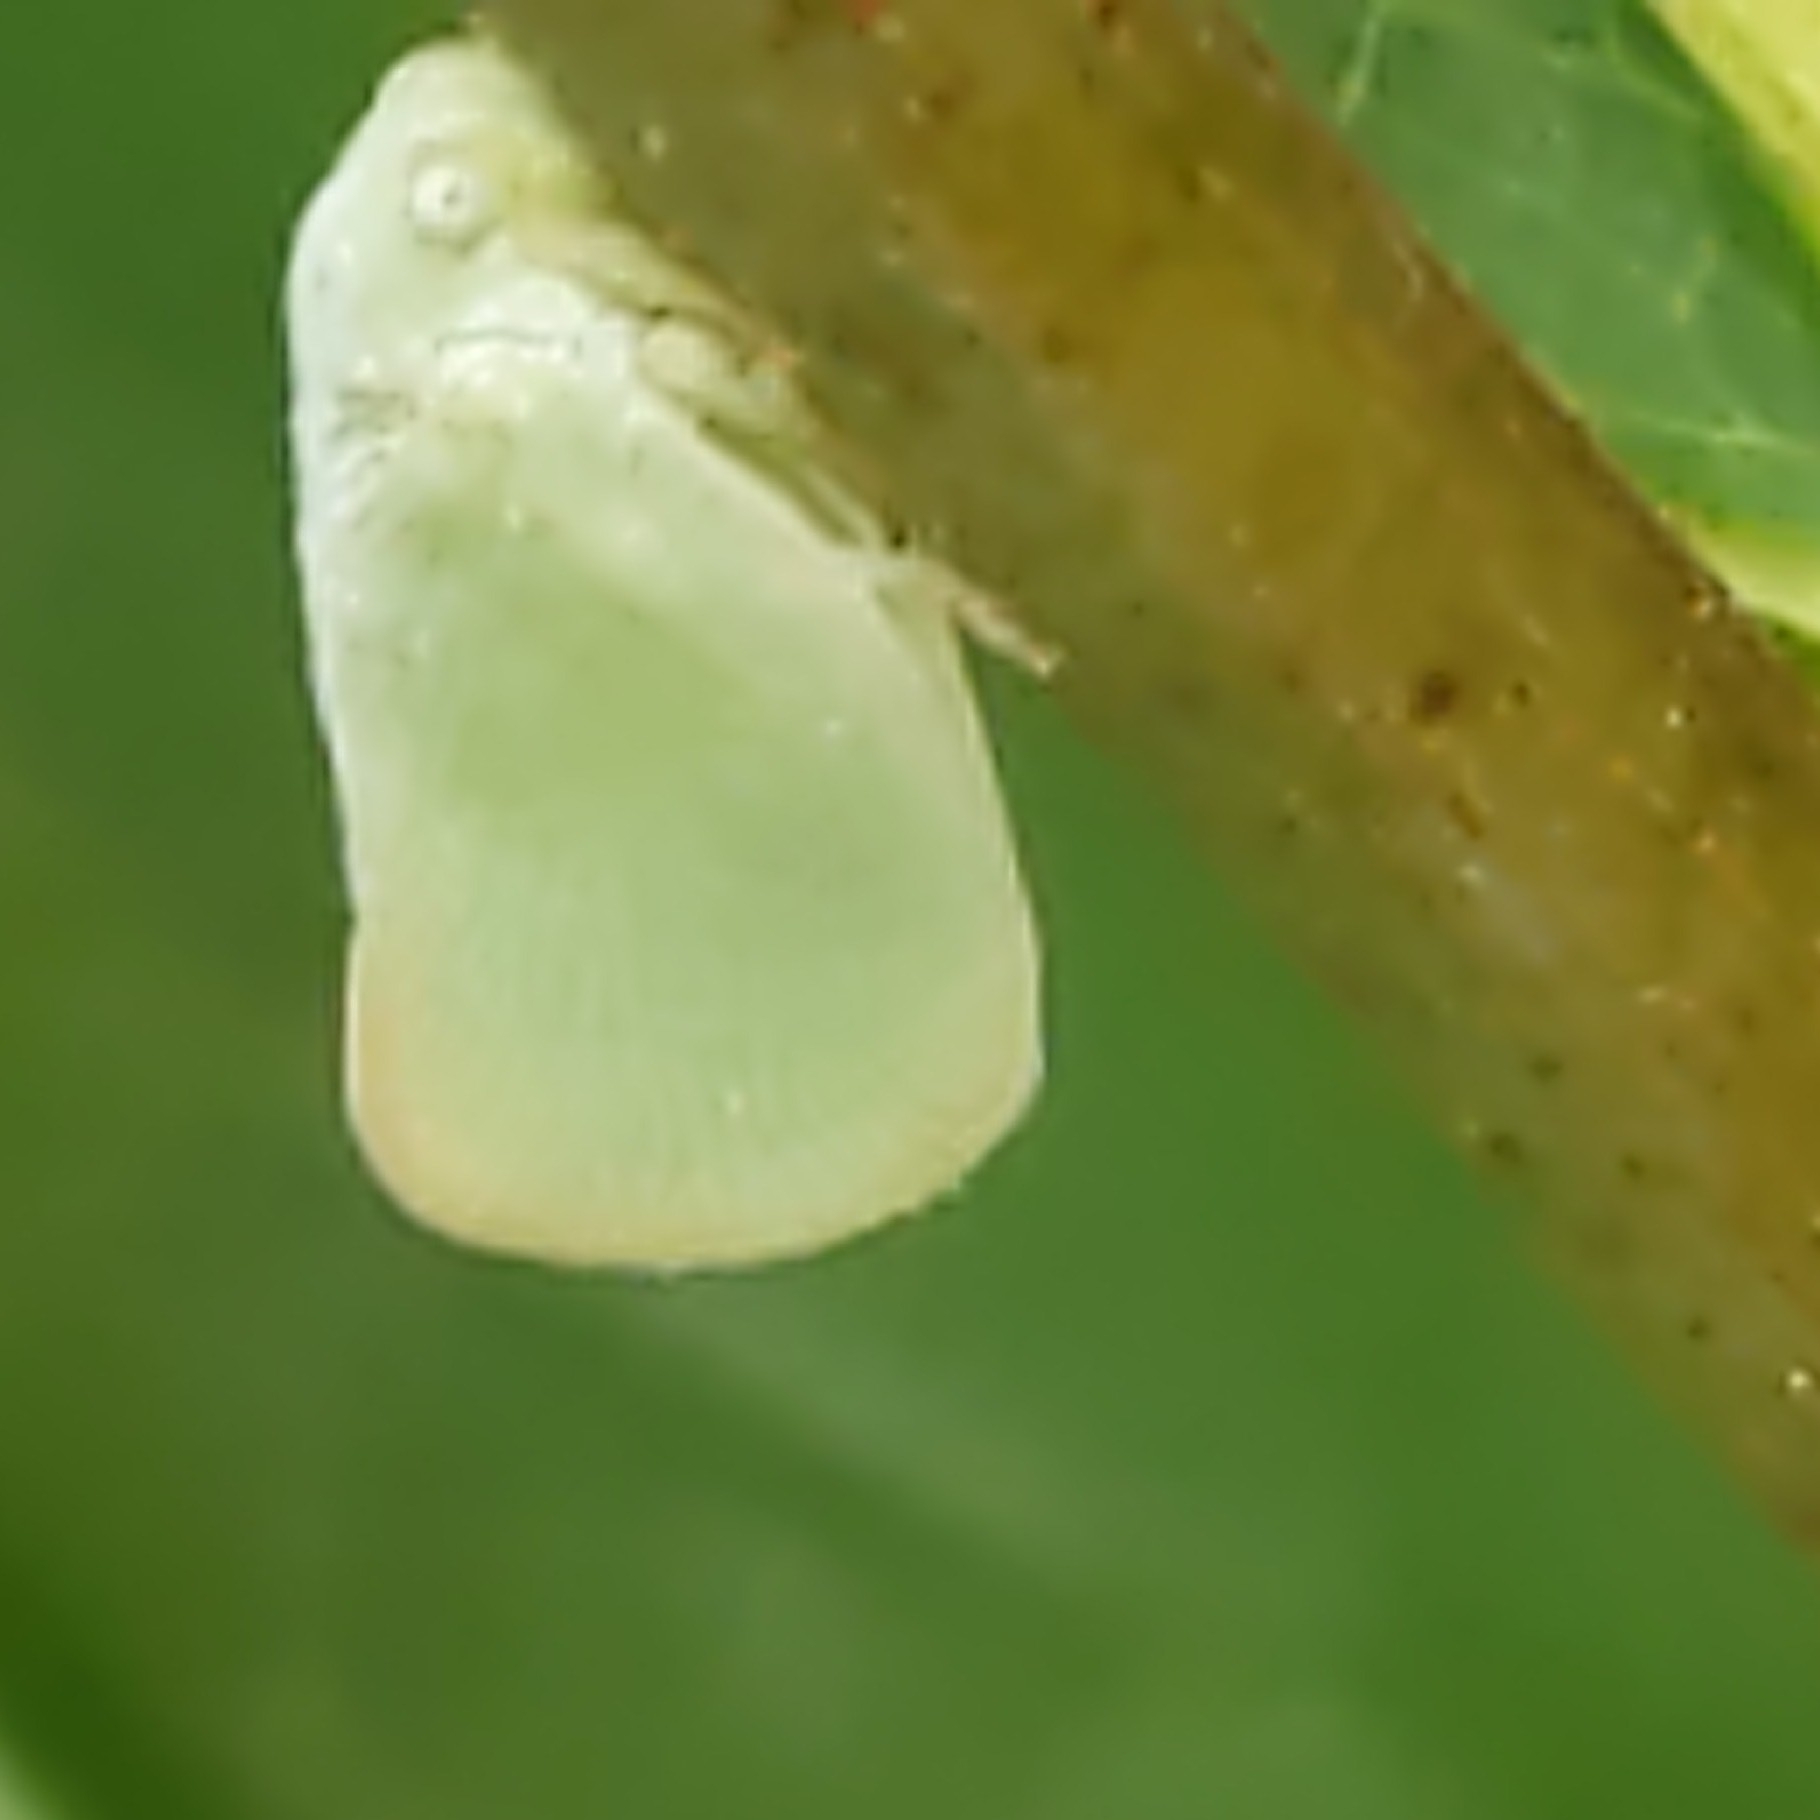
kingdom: Animalia
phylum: Arthropoda
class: Insecta
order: Hemiptera
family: Flatidae
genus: Ormenoides
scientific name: Ormenoides venusta
